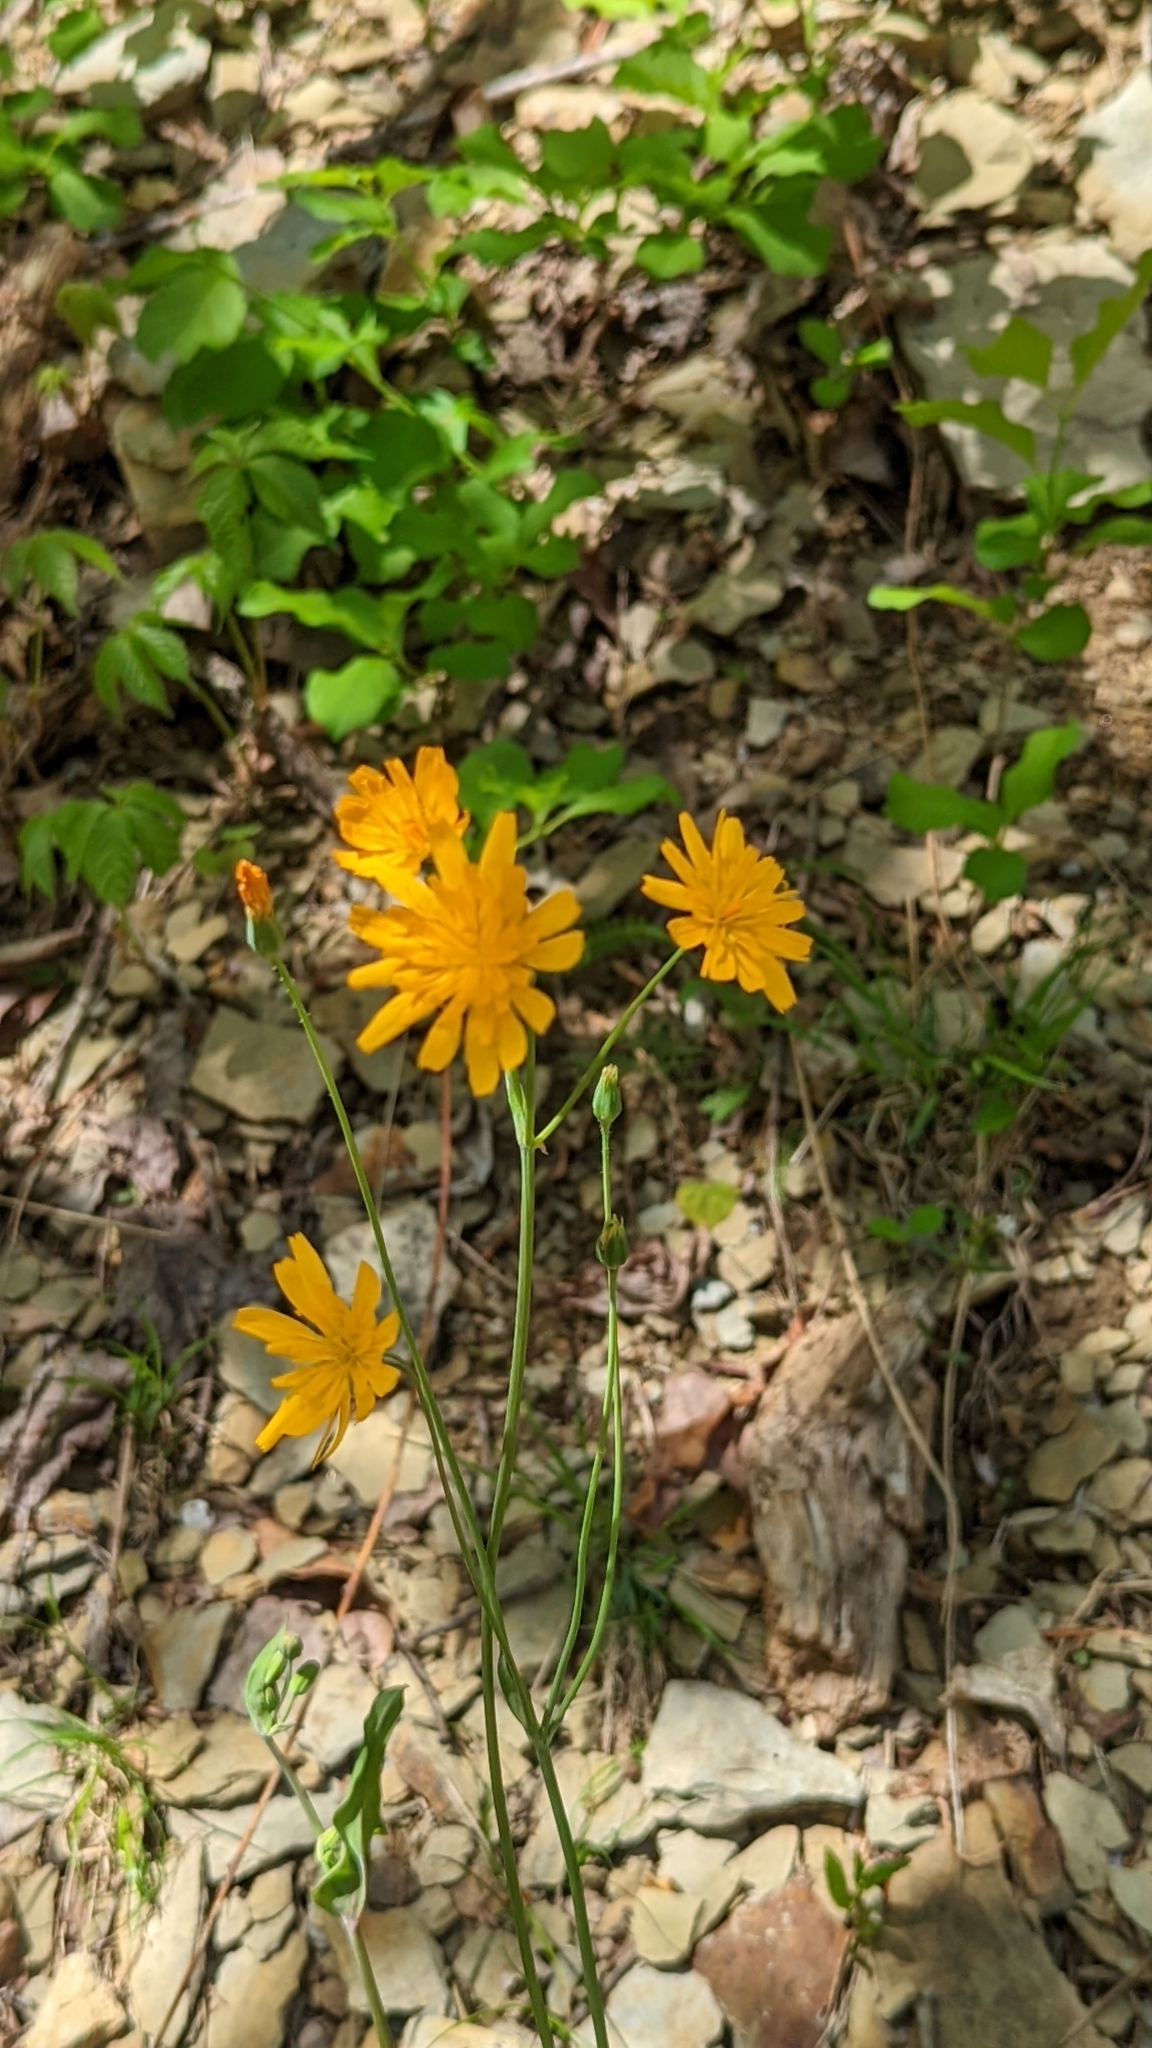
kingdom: Plantae
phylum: Tracheophyta
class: Magnoliopsida
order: Asterales
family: Asteraceae
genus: Krigia
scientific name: Krigia biflora
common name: Orange dwarf-dandelion
